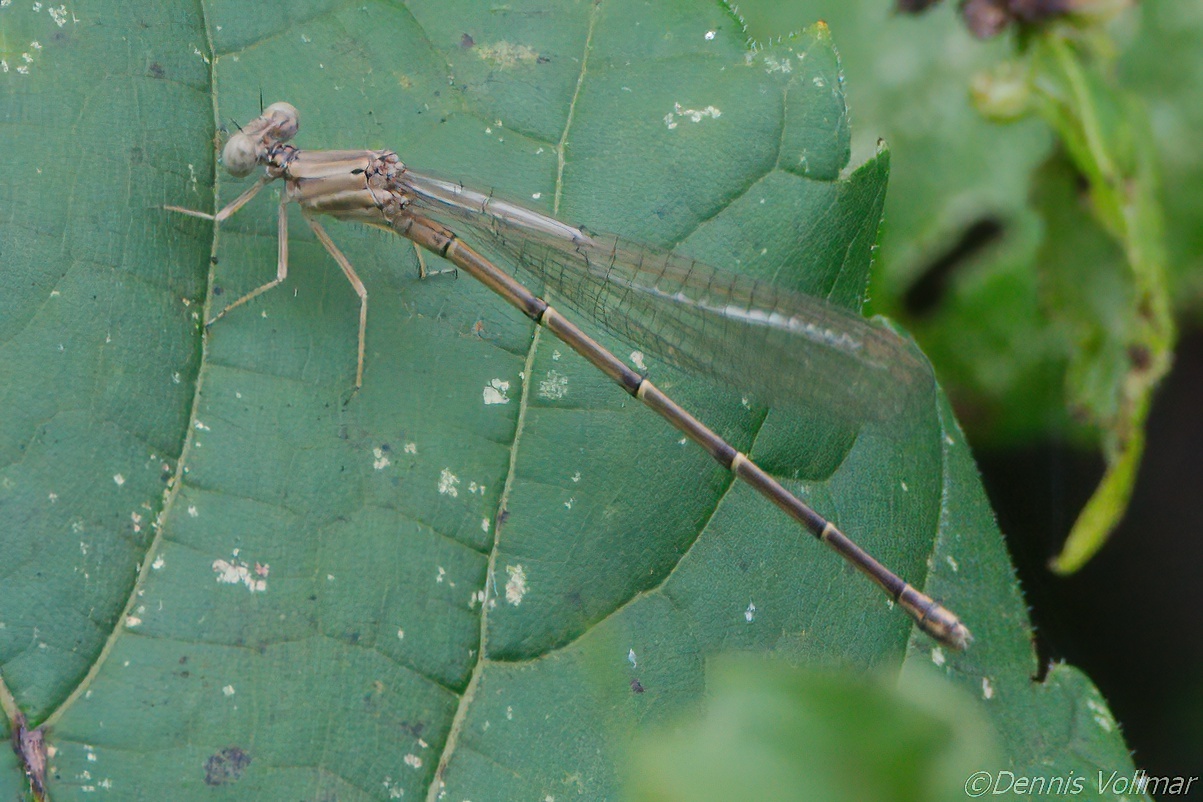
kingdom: Animalia
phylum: Arthropoda
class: Insecta
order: Odonata
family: Coenagrionidae
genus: Argia
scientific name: Argia
